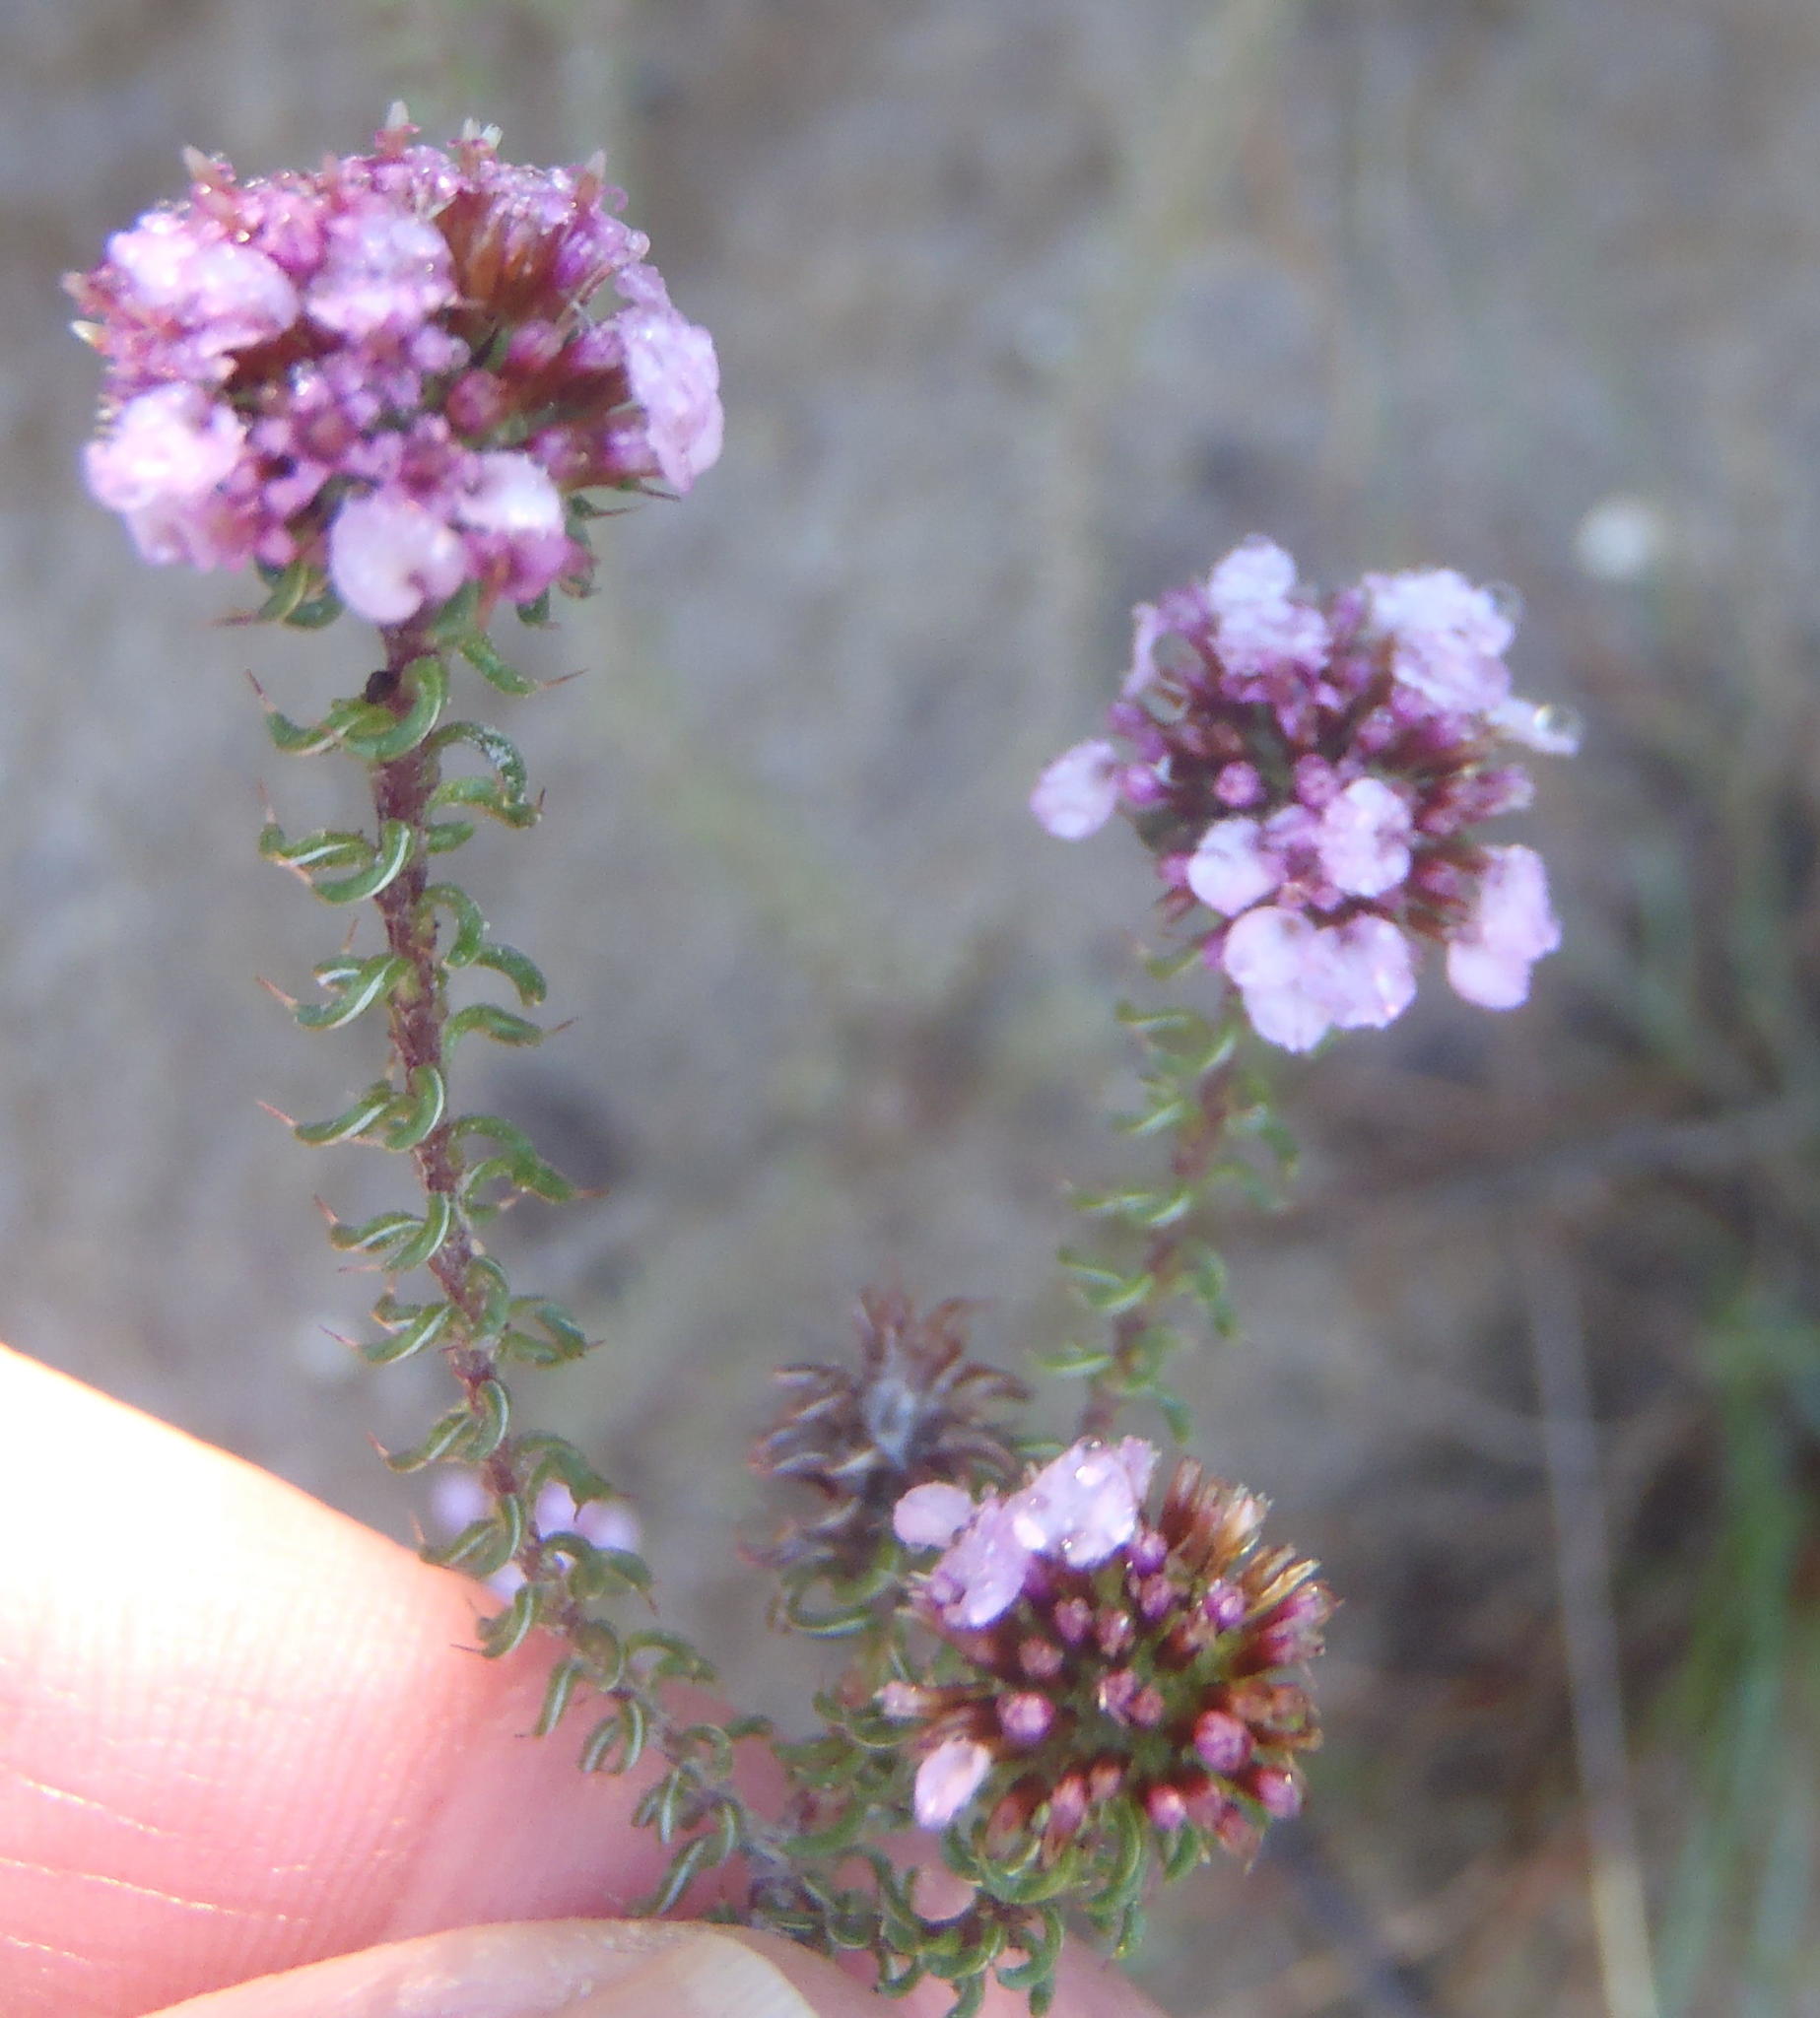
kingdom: Plantae
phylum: Tracheophyta
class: Magnoliopsida
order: Asterales
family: Asteraceae
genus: Disparago
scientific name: Disparago tortilis
